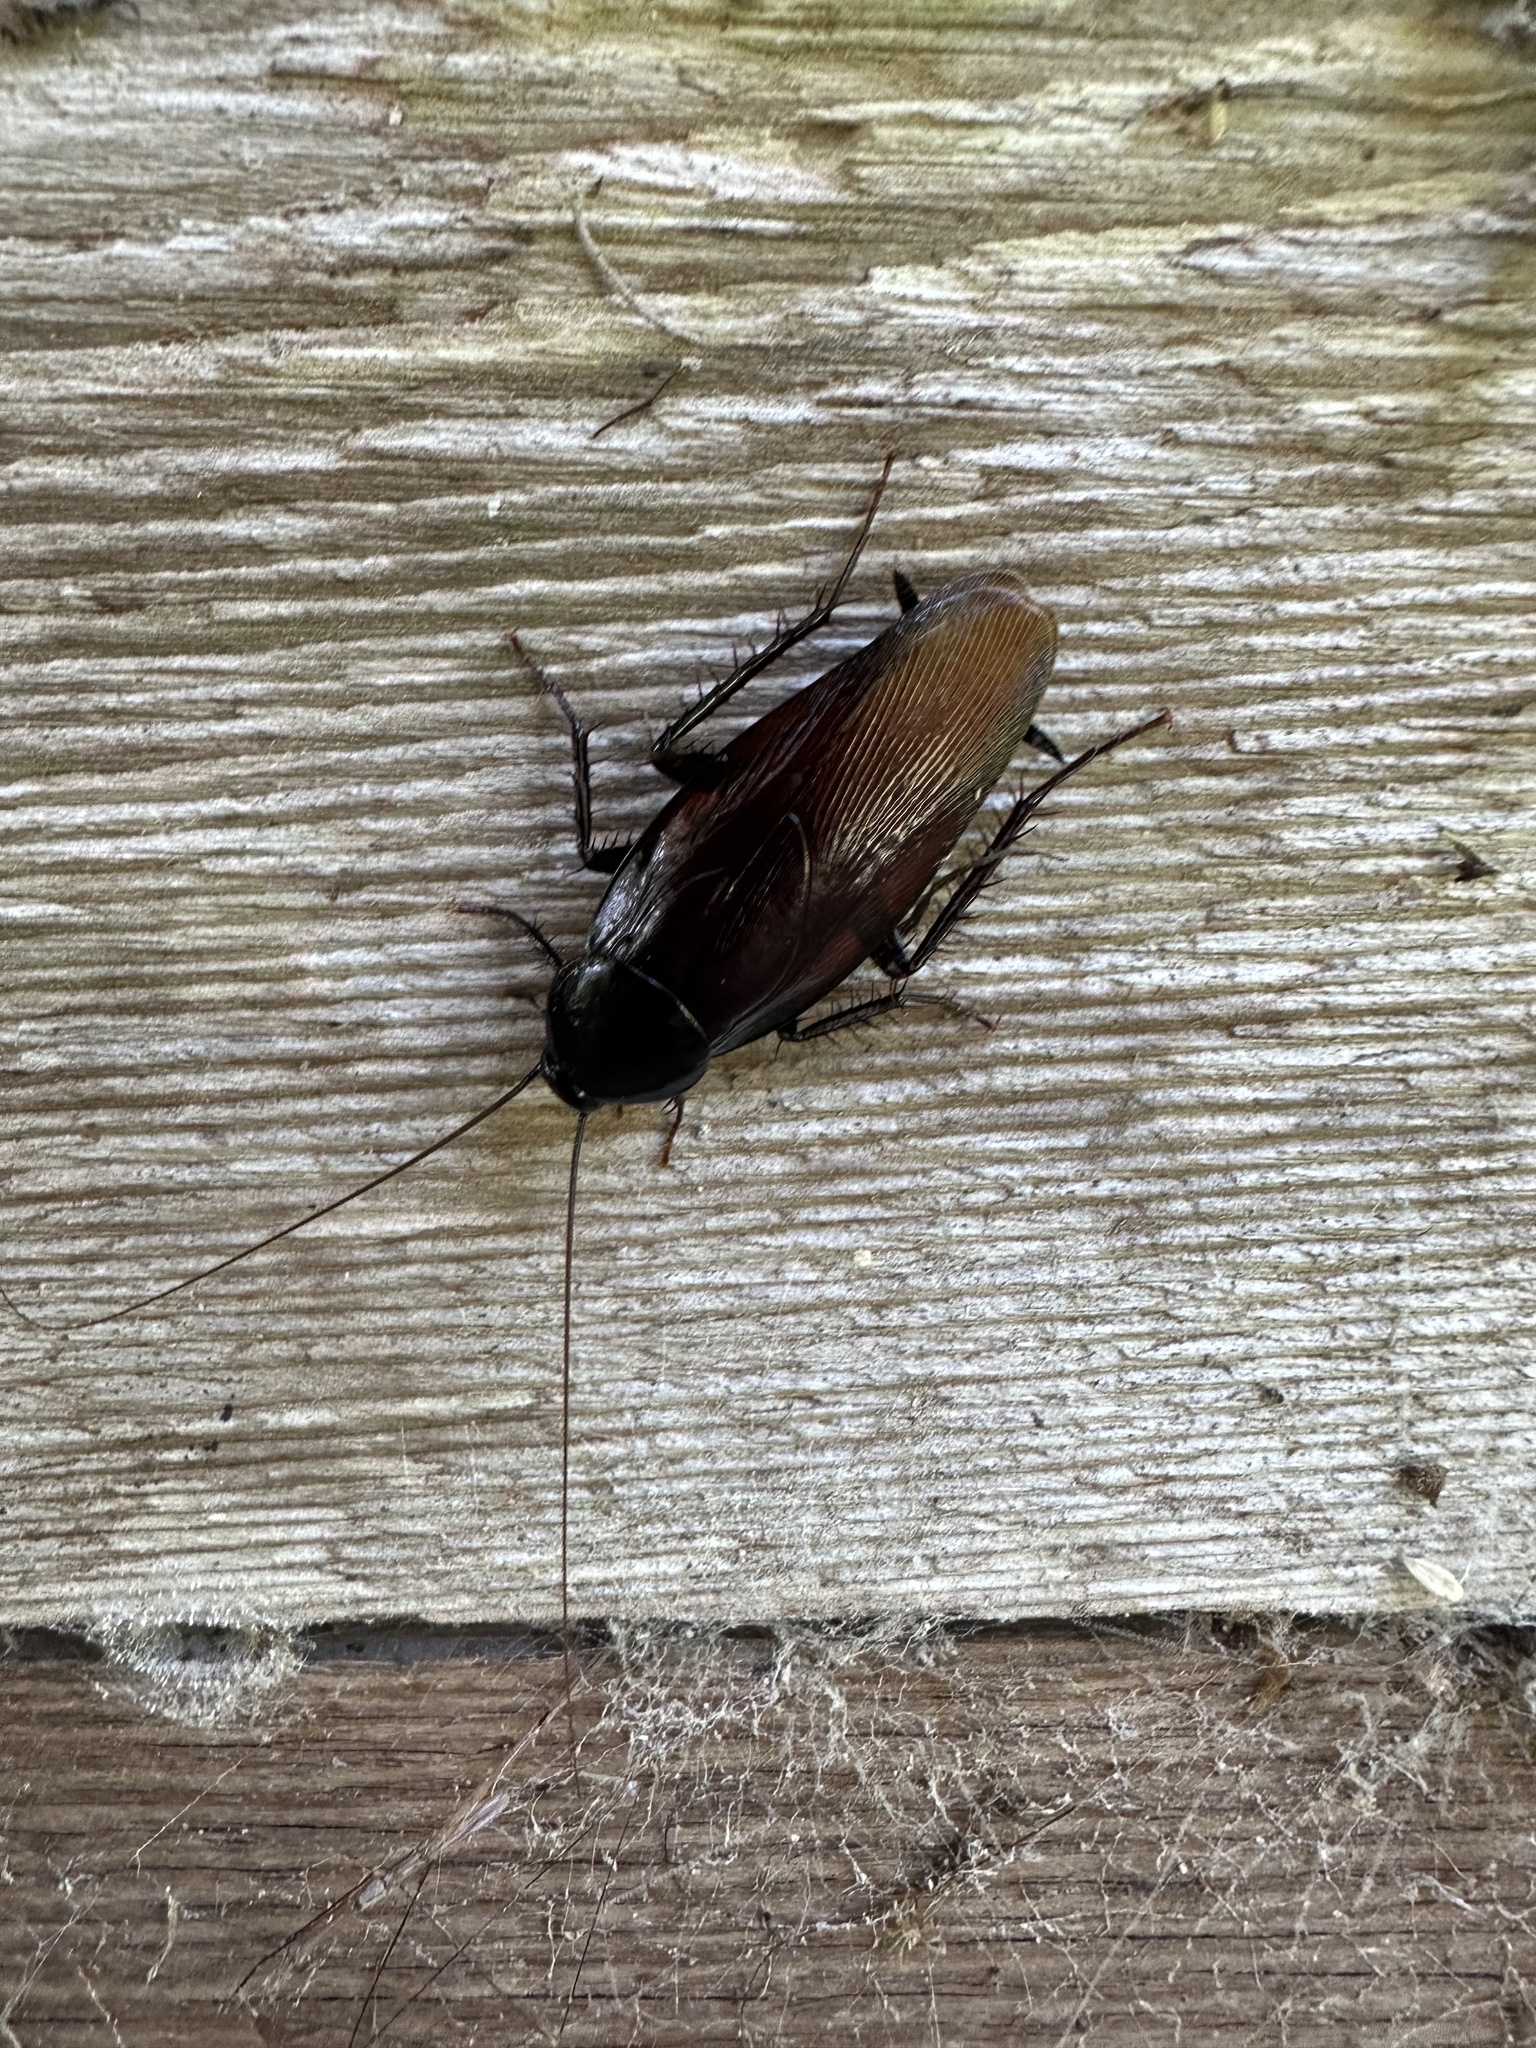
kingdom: Animalia
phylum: Arthropoda
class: Insecta
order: Blattodea
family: Blattidae
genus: Periplaneta
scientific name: Periplaneta fuliginosa
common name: Smokeybrown cockroad
